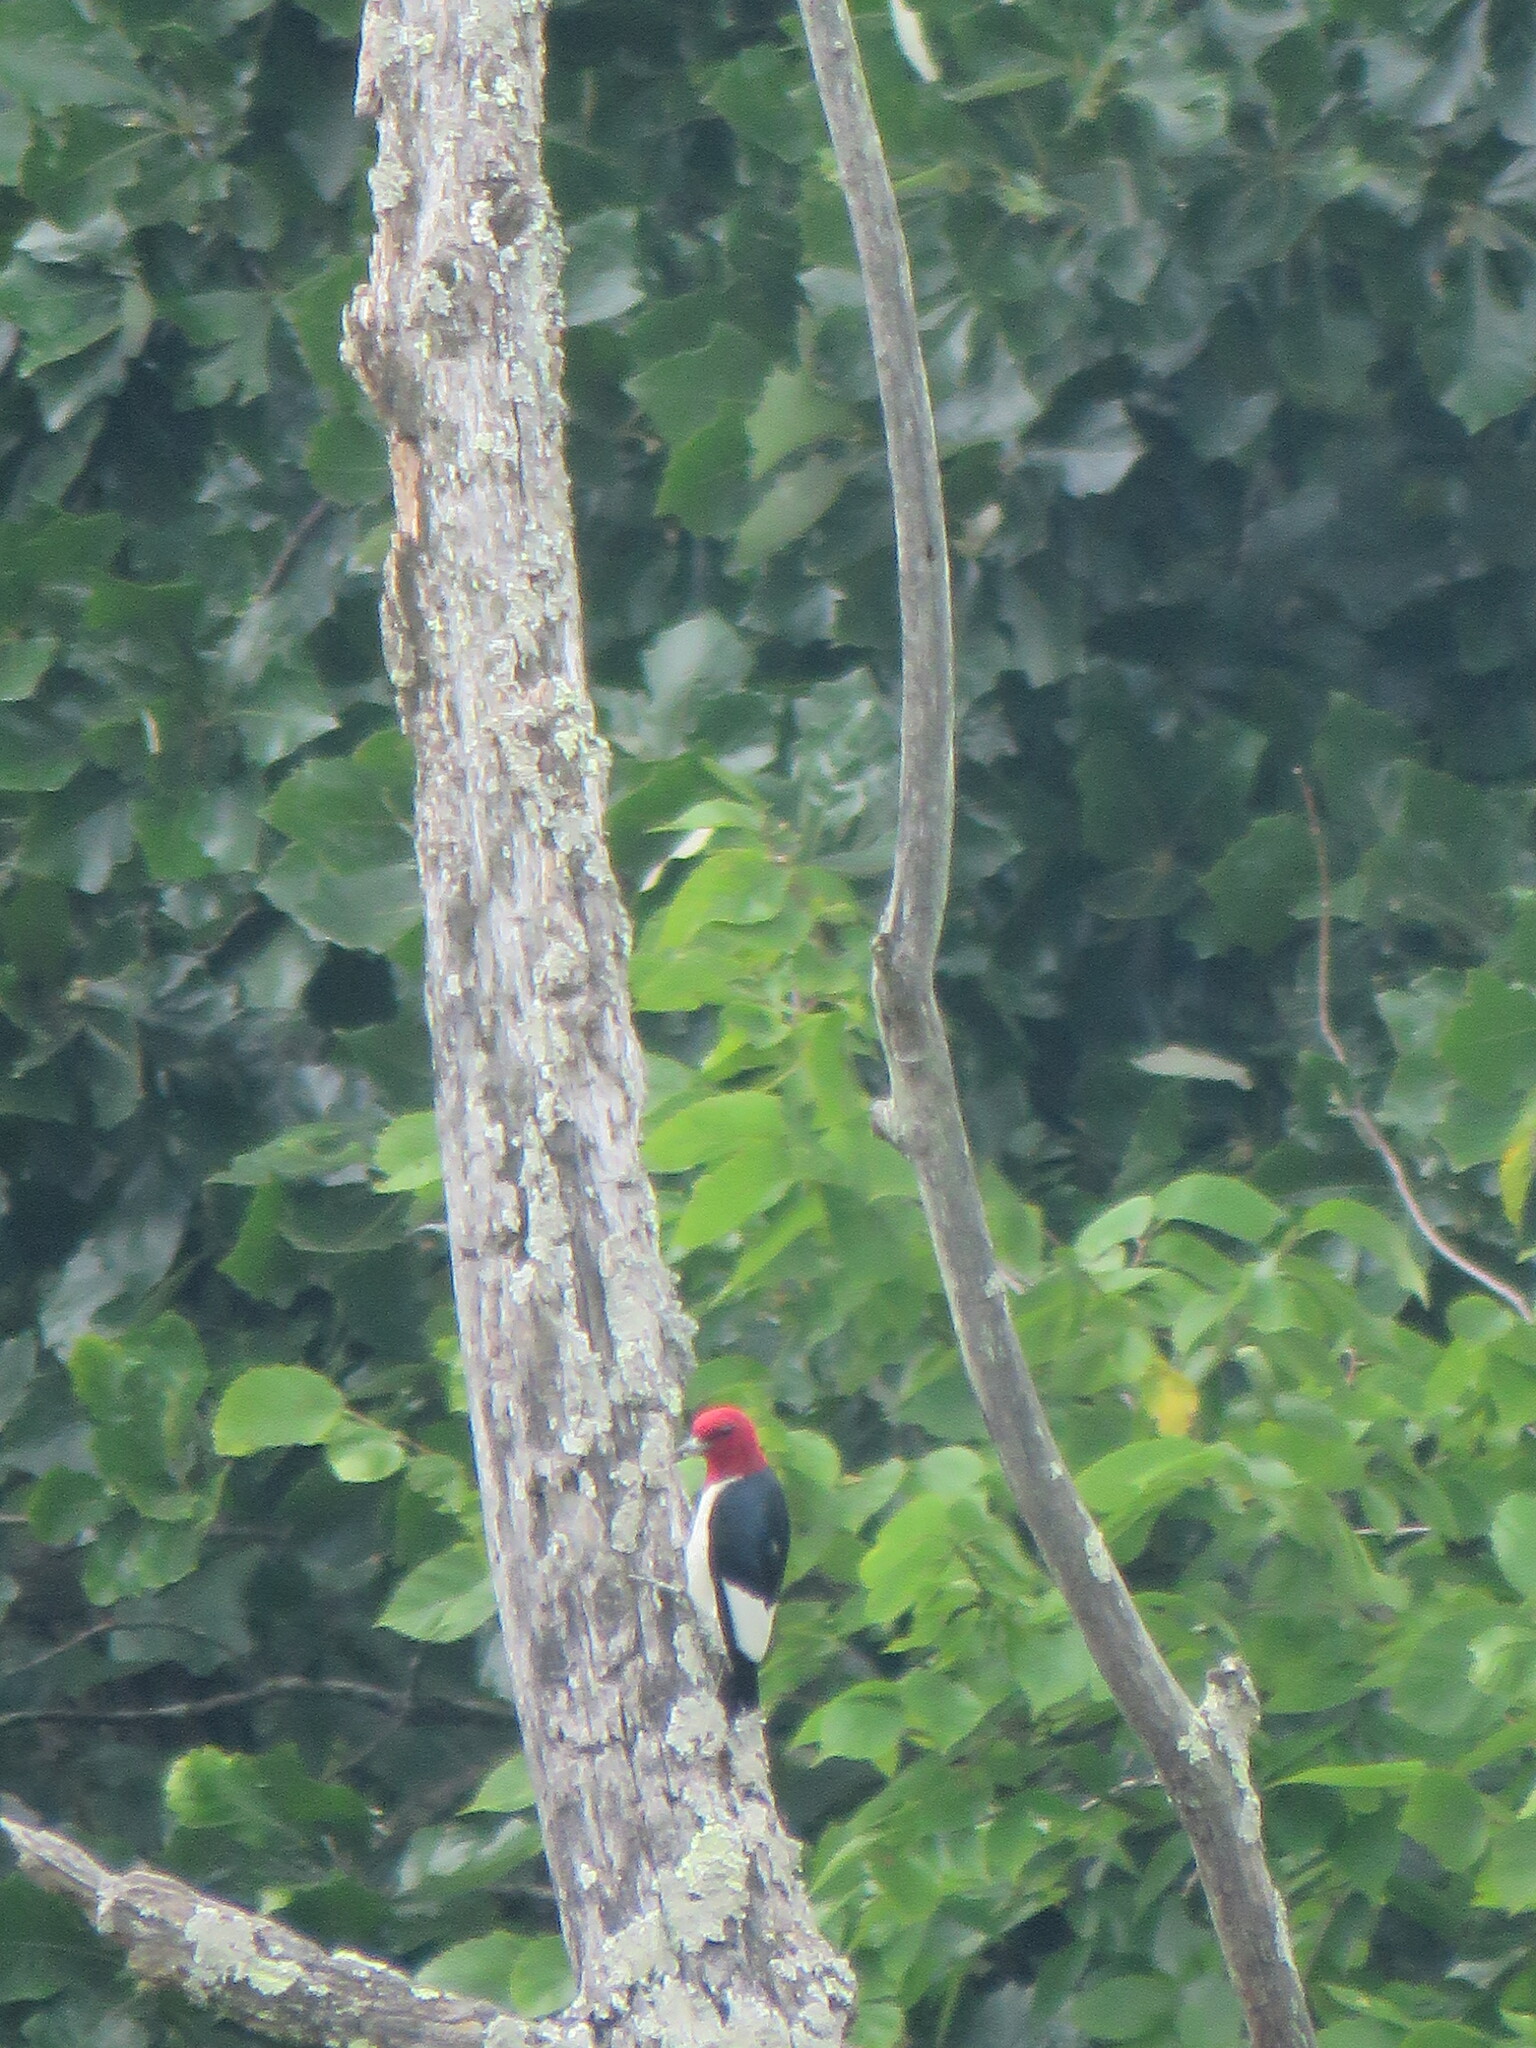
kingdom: Animalia
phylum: Chordata
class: Aves
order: Piciformes
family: Picidae
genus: Melanerpes
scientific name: Melanerpes erythrocephalus
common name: Red-headed woodpecker
